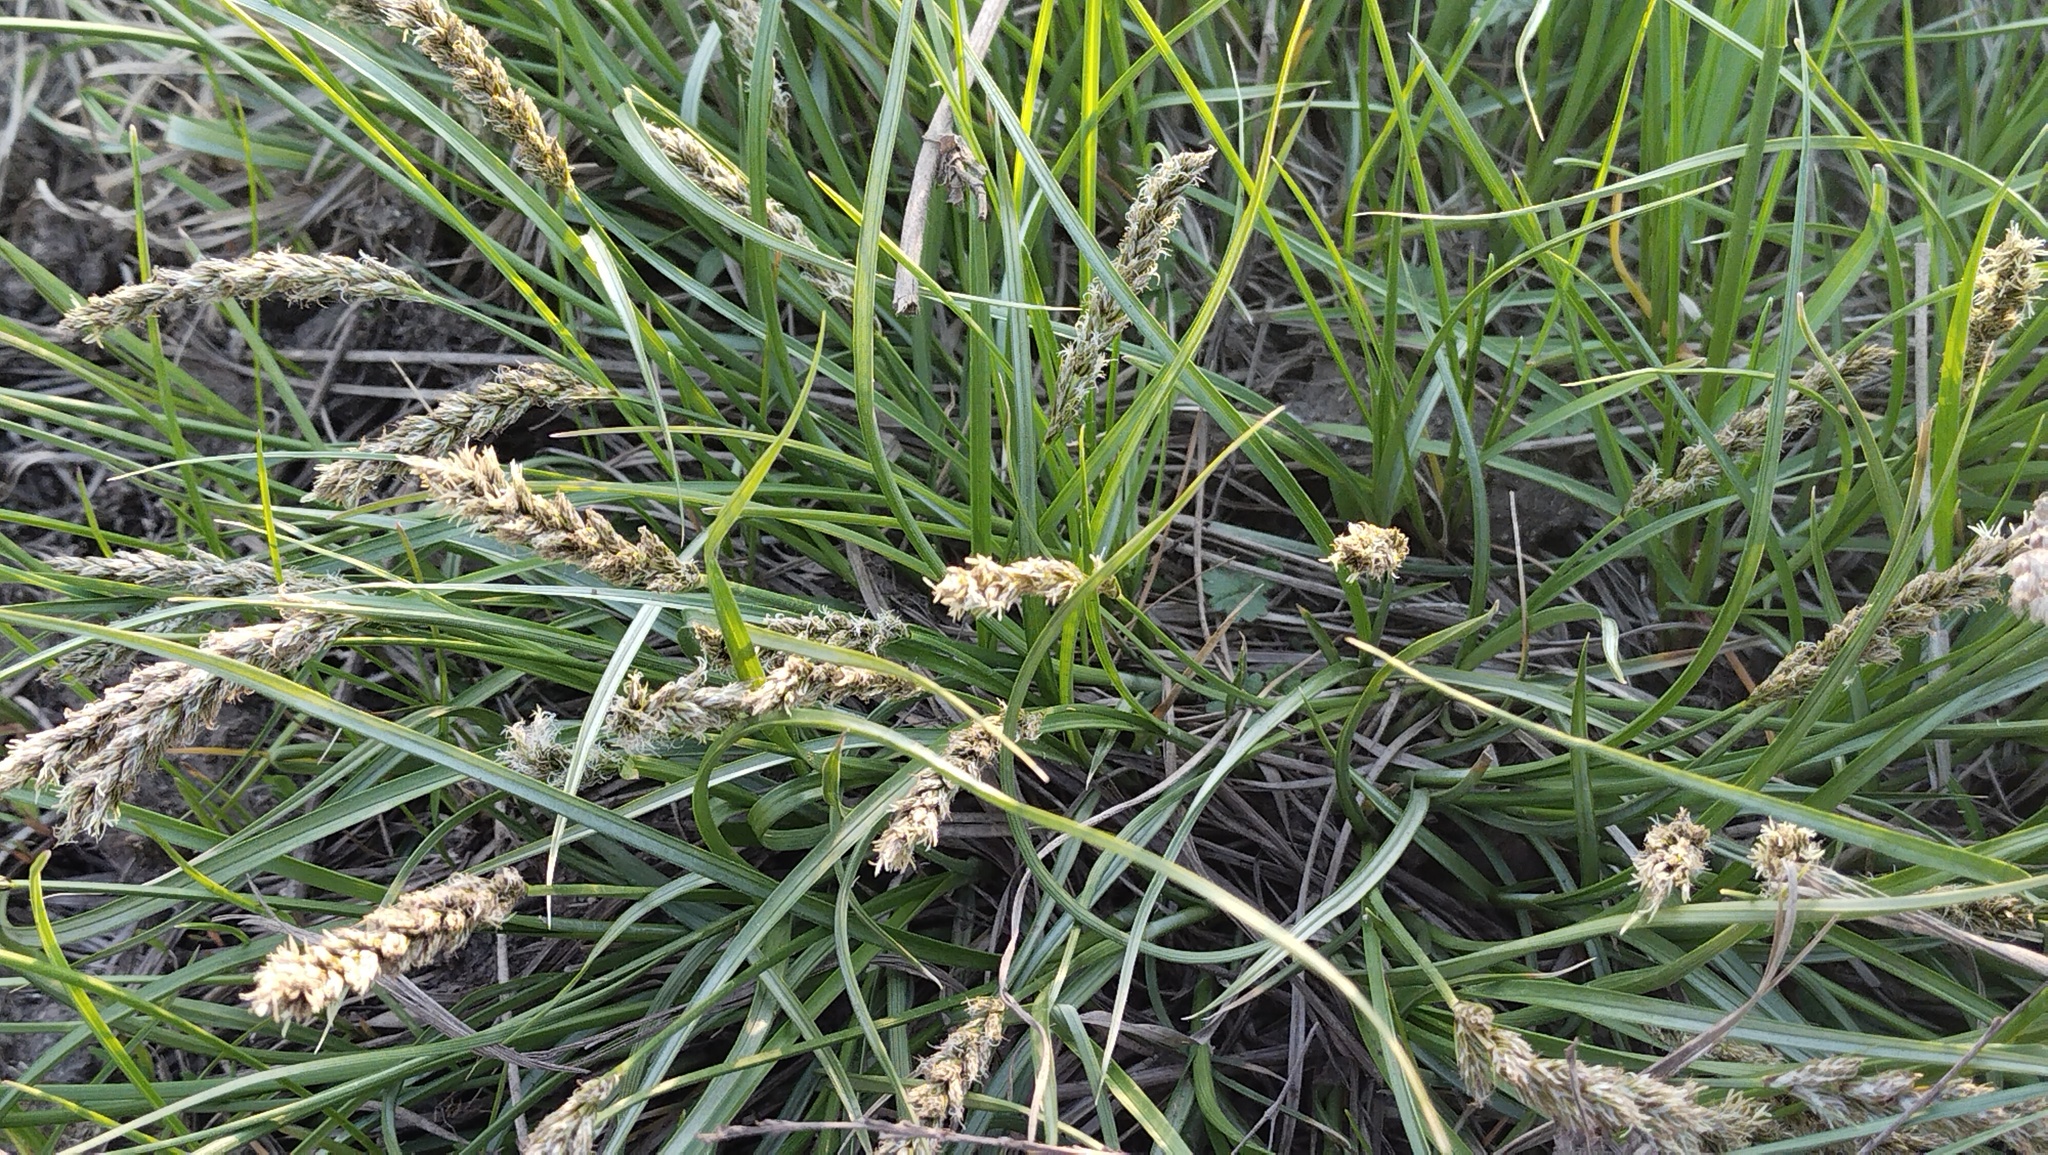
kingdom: Plantae
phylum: Tracheophyta
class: Liliopsida
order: Poales
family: Cyperaceae
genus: Carex
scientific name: Carex laevissima
